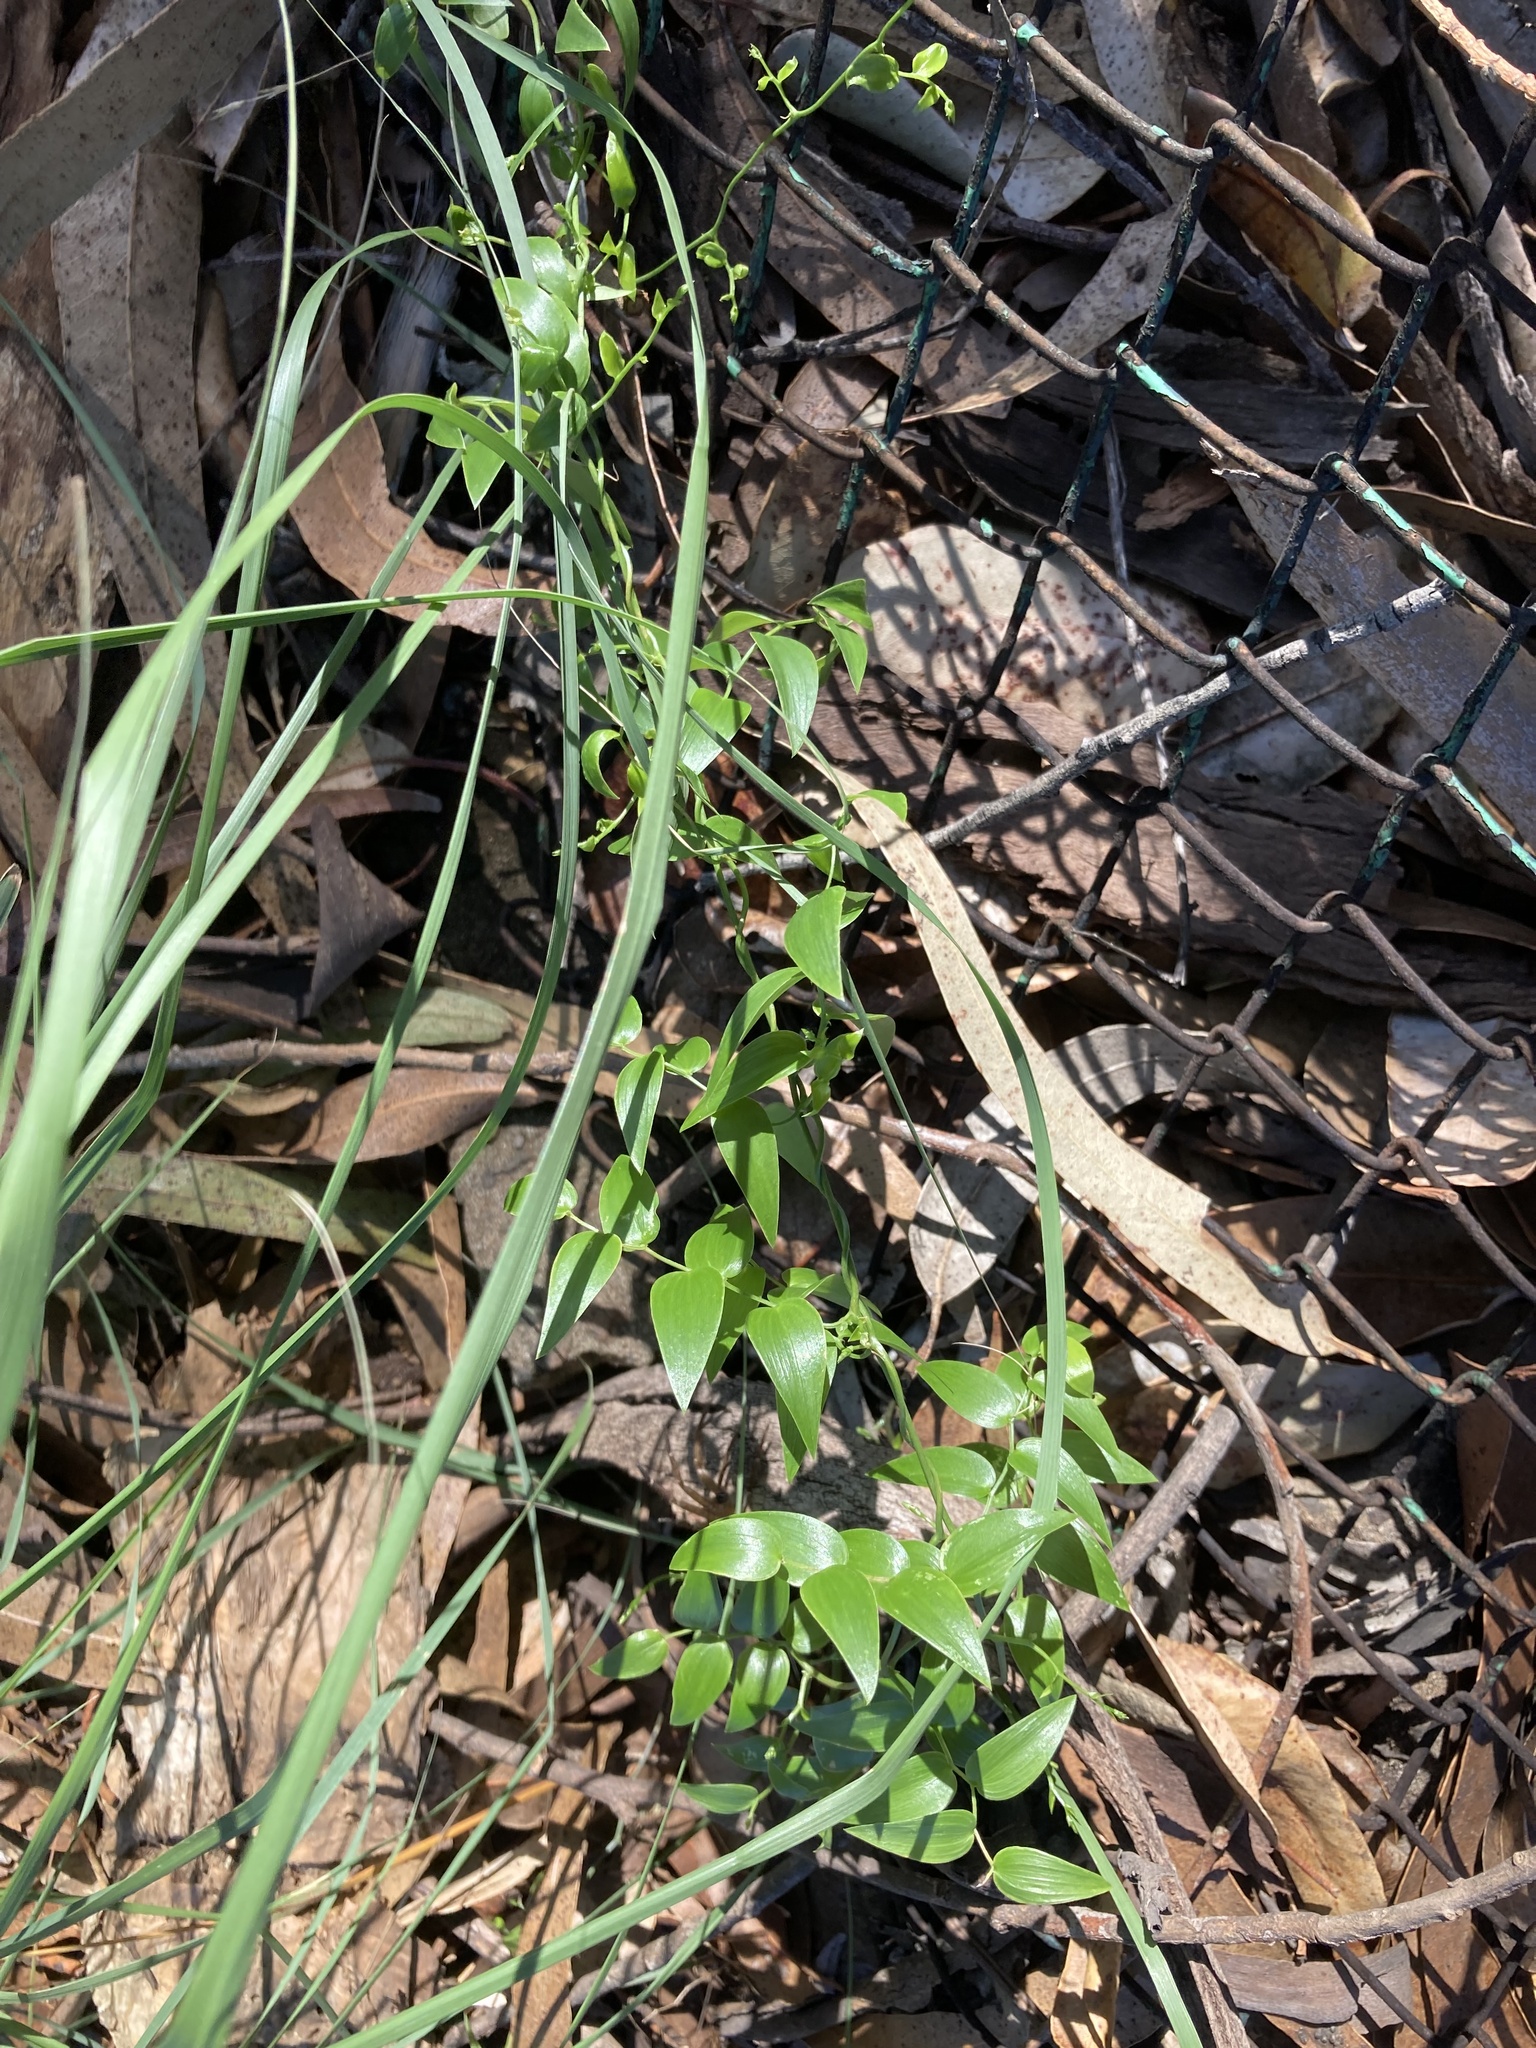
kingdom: Plantae
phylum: Tracheophyta
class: Liliopsida
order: Asparagales
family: Asparagaceae
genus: Asparagus
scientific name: Asparagus asparagoides
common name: African asparagus fern
